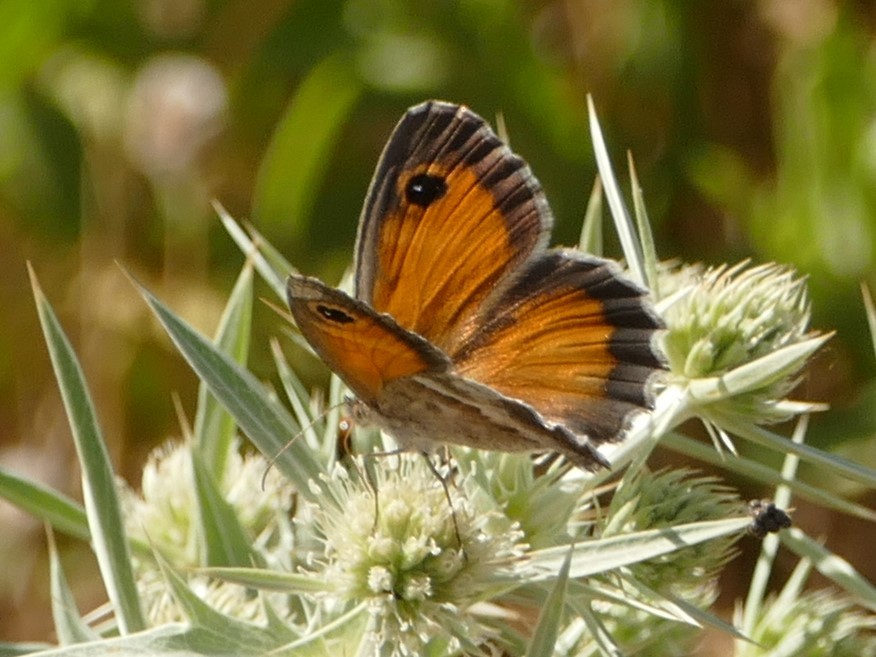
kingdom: Animalia
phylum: Arthropoda
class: Insecta
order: Lepidoptera
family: Nymphalidae
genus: Pyronia
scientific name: Pyronia cecilia
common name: Southern gatekeeper
